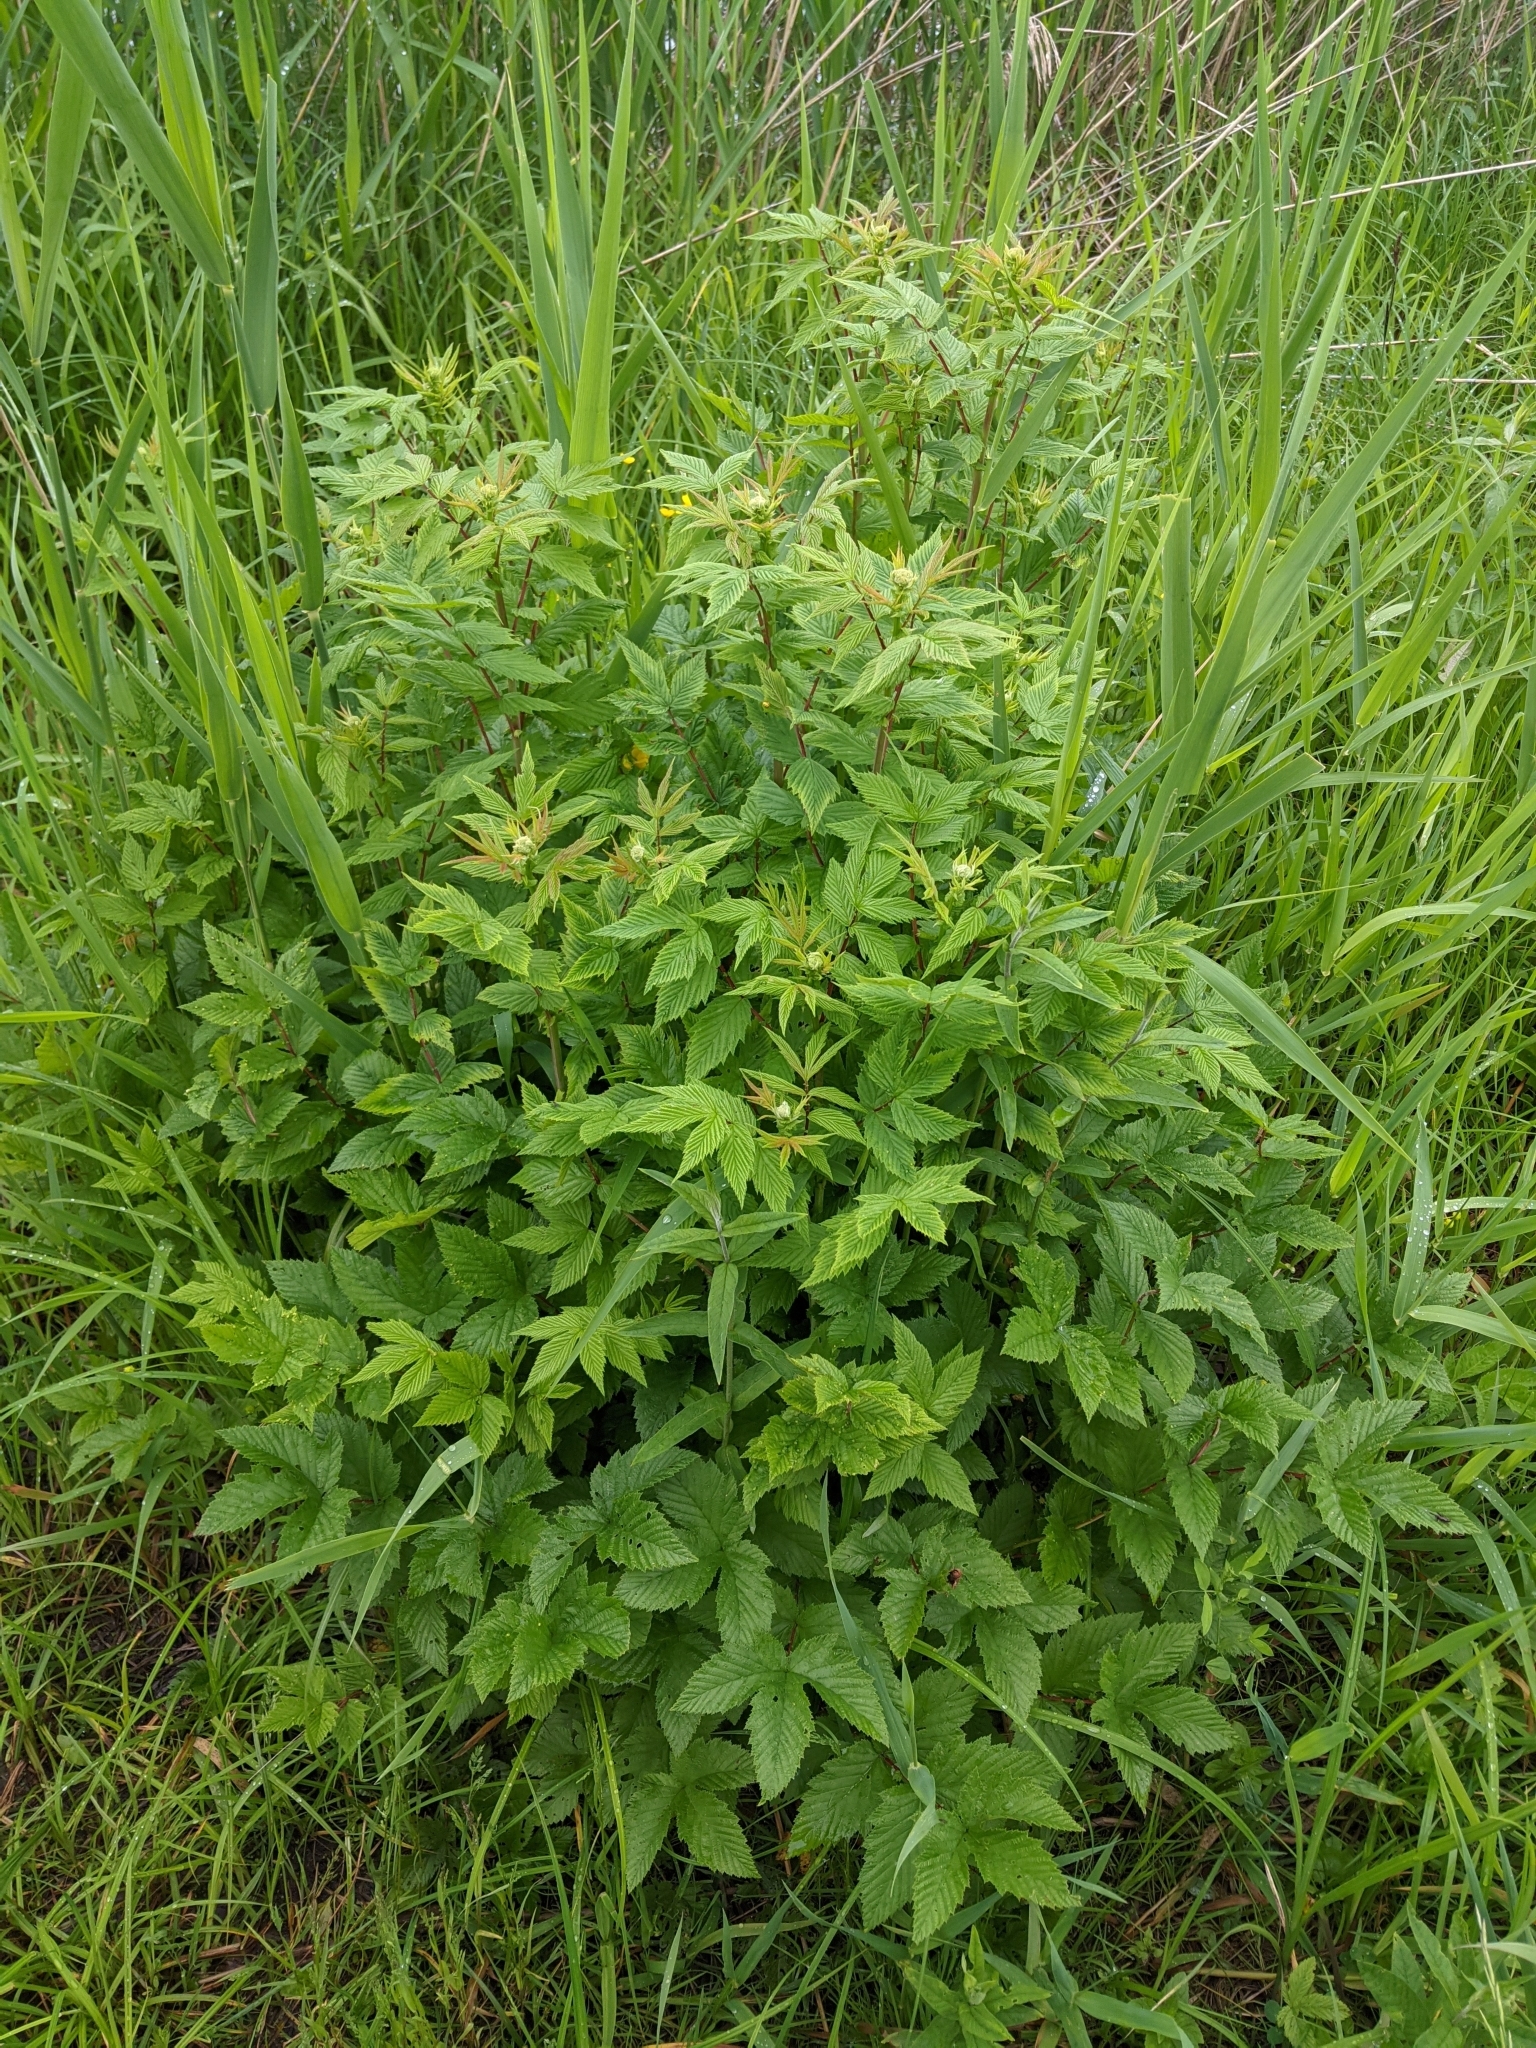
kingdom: Plantae
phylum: Tracheophyta
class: Magnoliopsida
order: Rosales
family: Rosaceae
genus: Filipendula
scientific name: Filipendula ulmaria
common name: Meadowsweet
